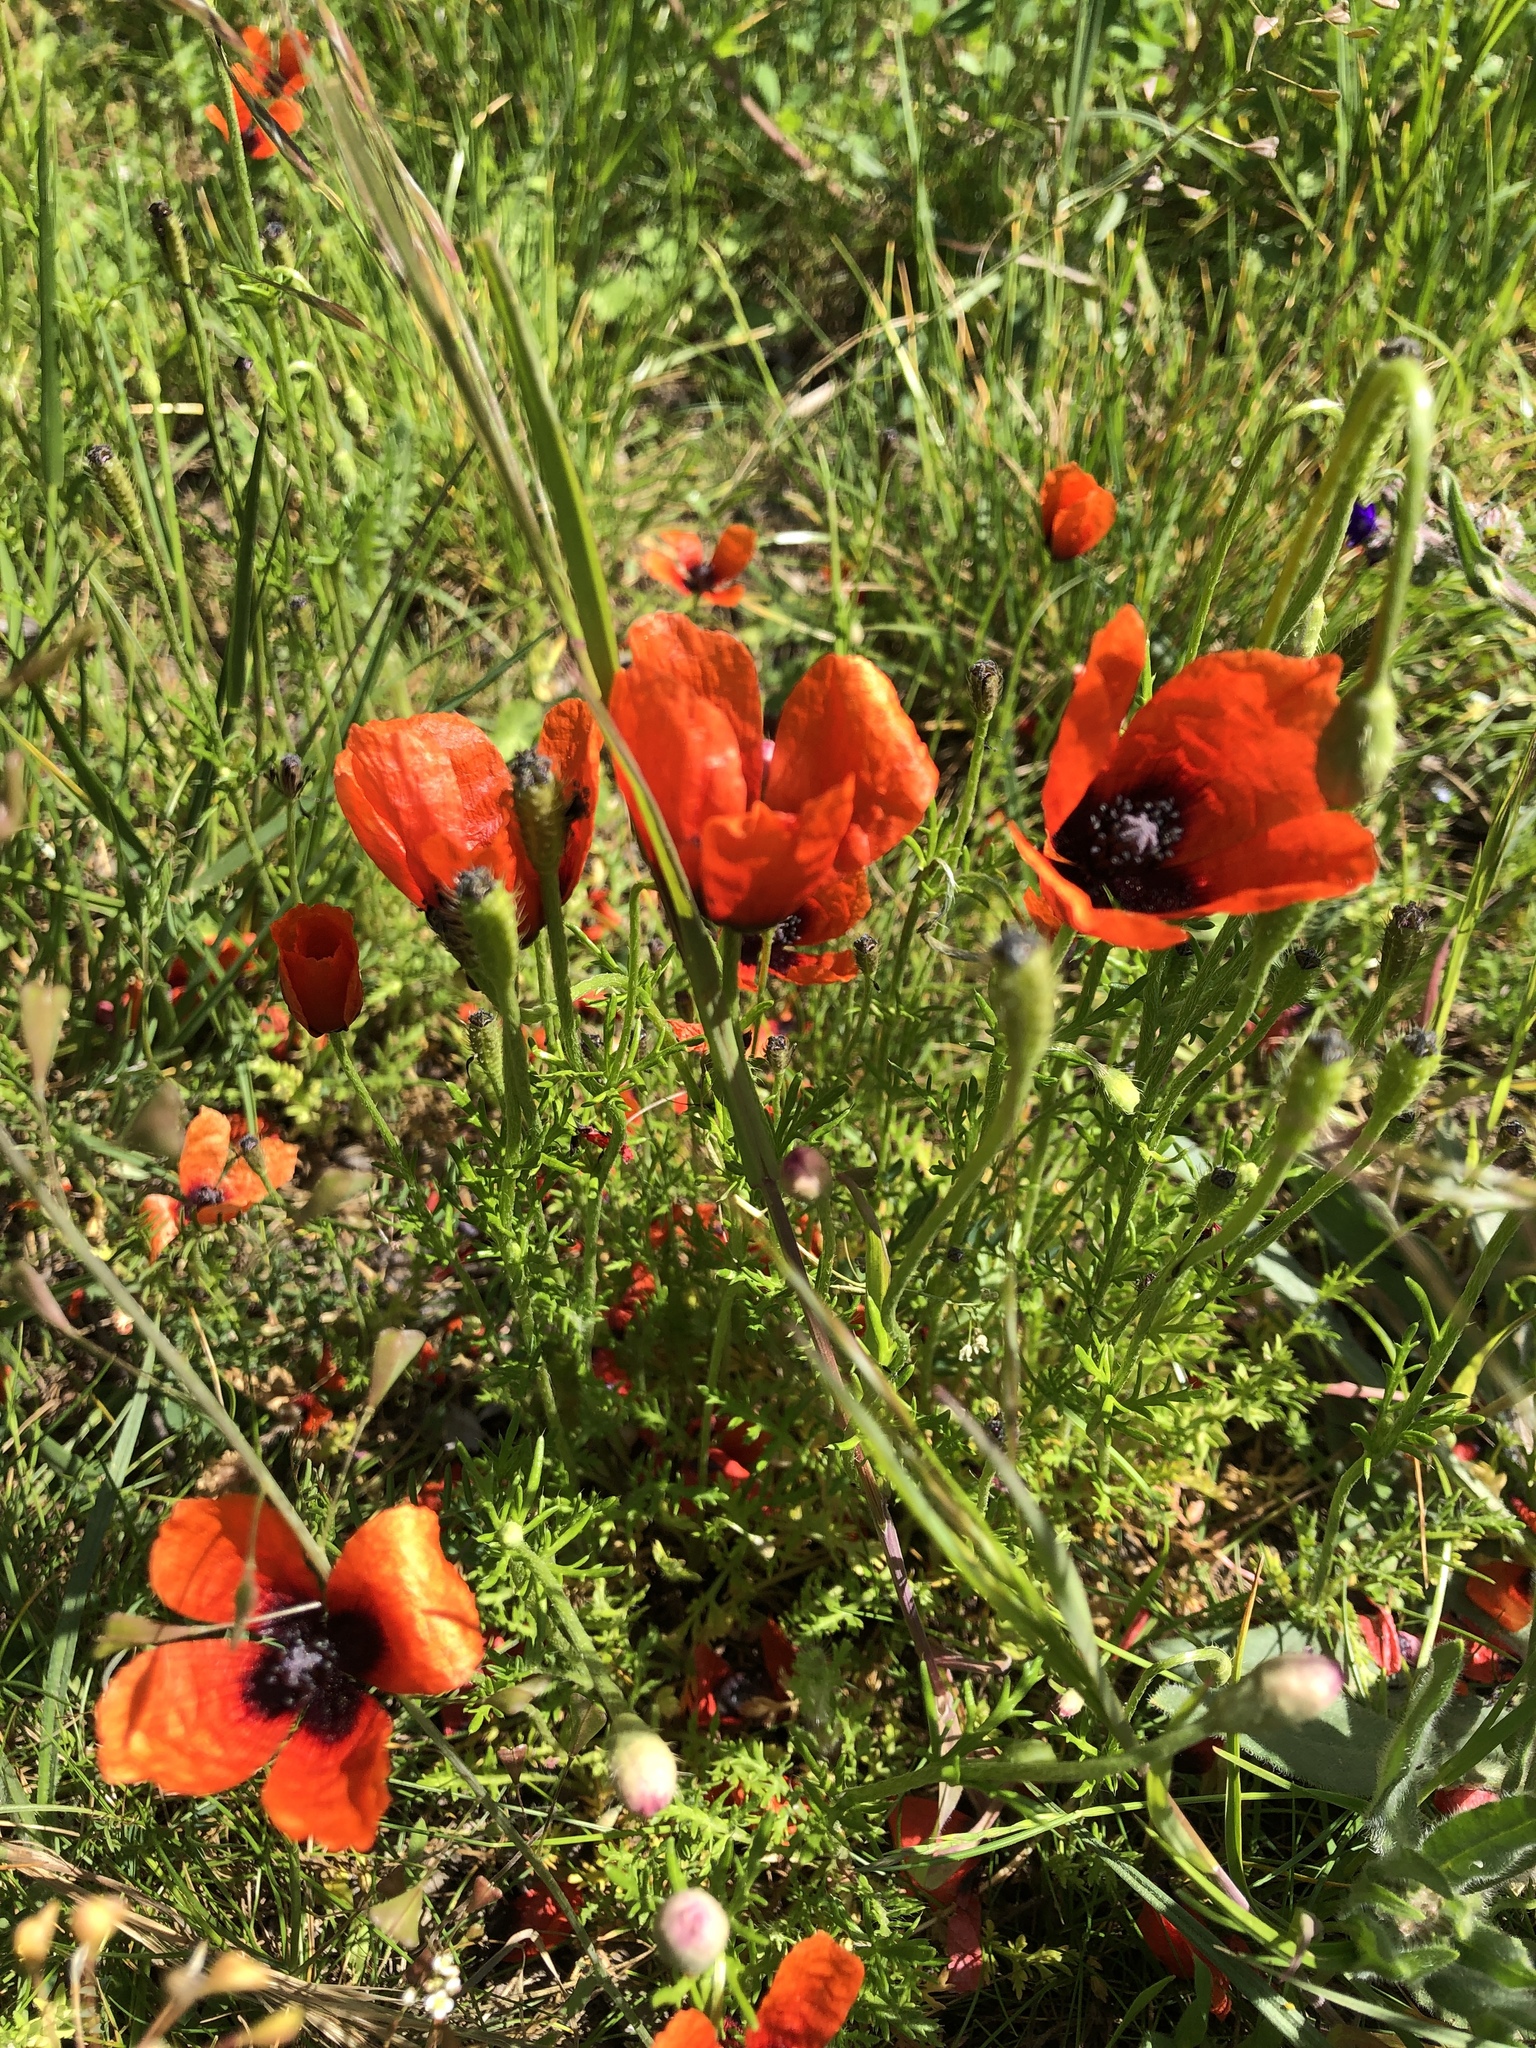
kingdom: Plantae
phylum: Tracheophyta
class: Magnoliopsida
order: Ranunculales
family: Papaveraceae
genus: Roemeria
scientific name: Roemeria argemone
